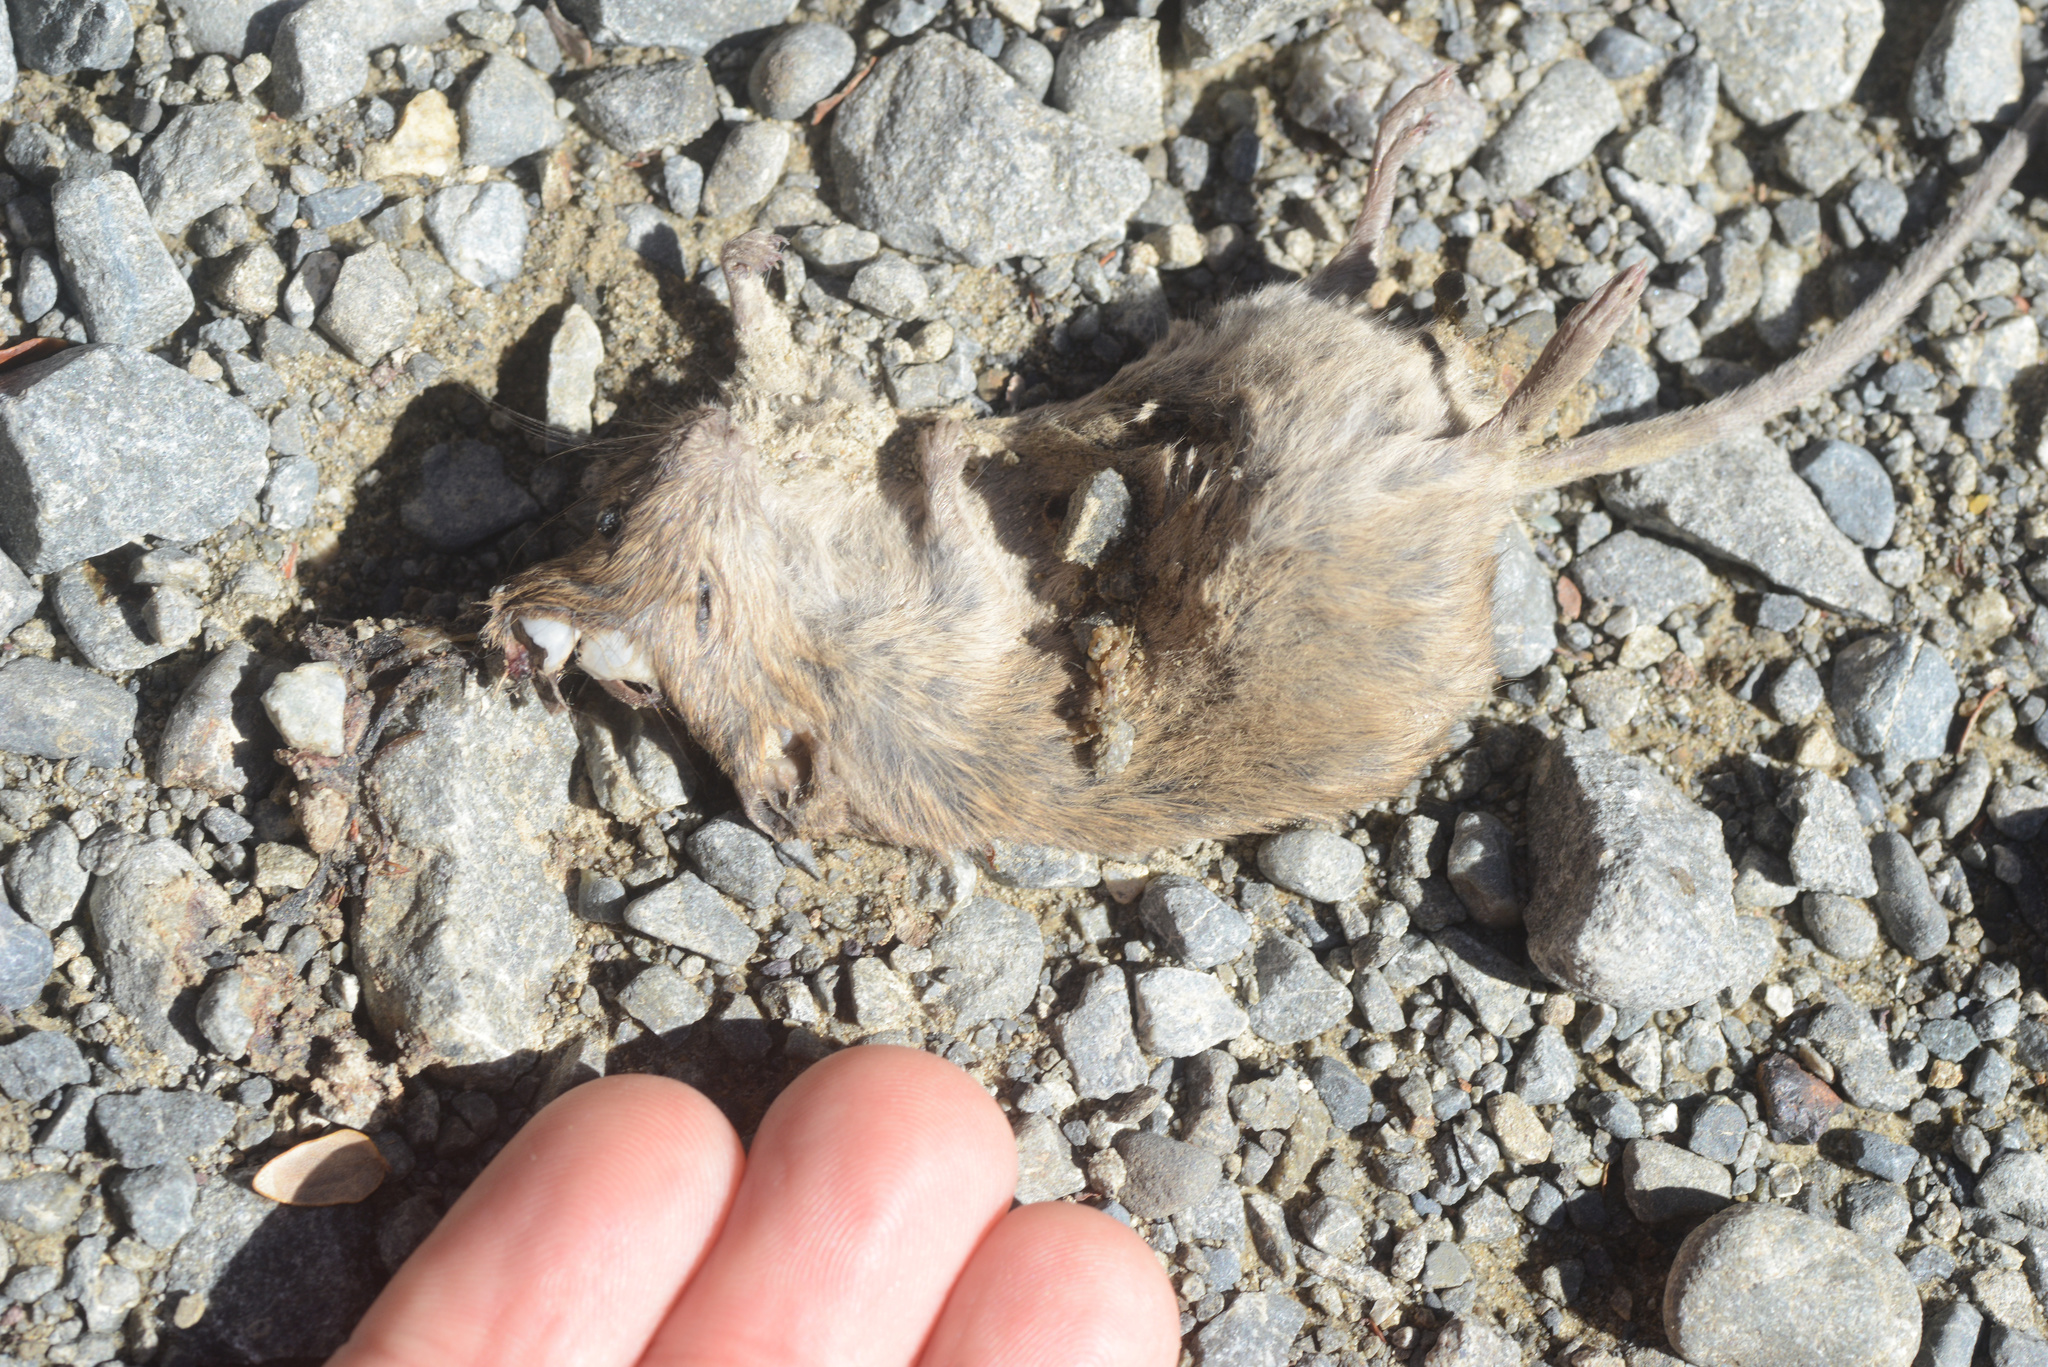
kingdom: Animalia
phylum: Chordata
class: Mammalia
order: Rodentia
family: Muridae
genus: Mus
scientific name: Mus musculus
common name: House mouse
